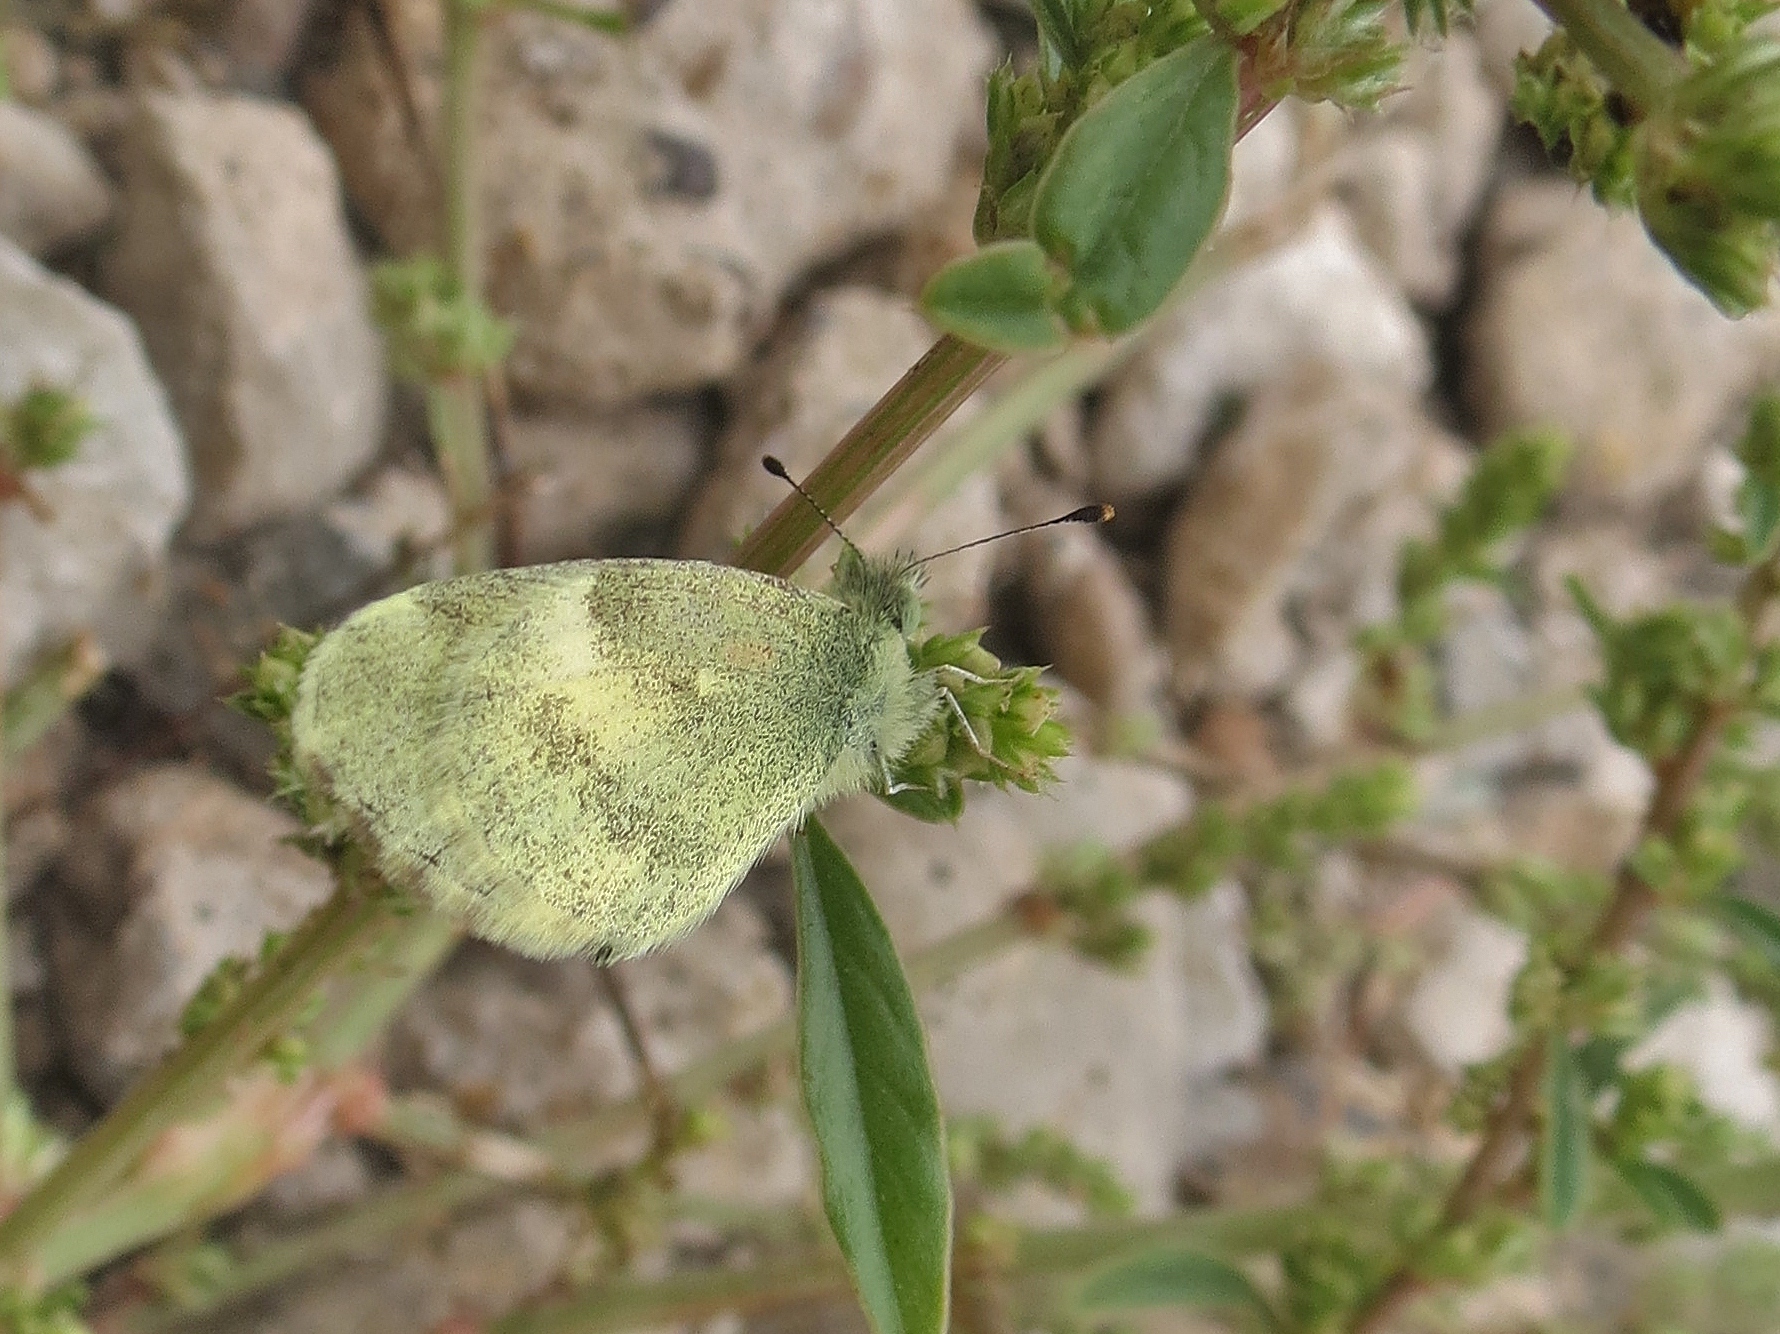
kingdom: Animalia
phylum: Arthropoda
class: Insecta
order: Lepidoptera
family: Pieridae
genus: Nathalis
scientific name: Nathalis iole
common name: Dainty sulphur
